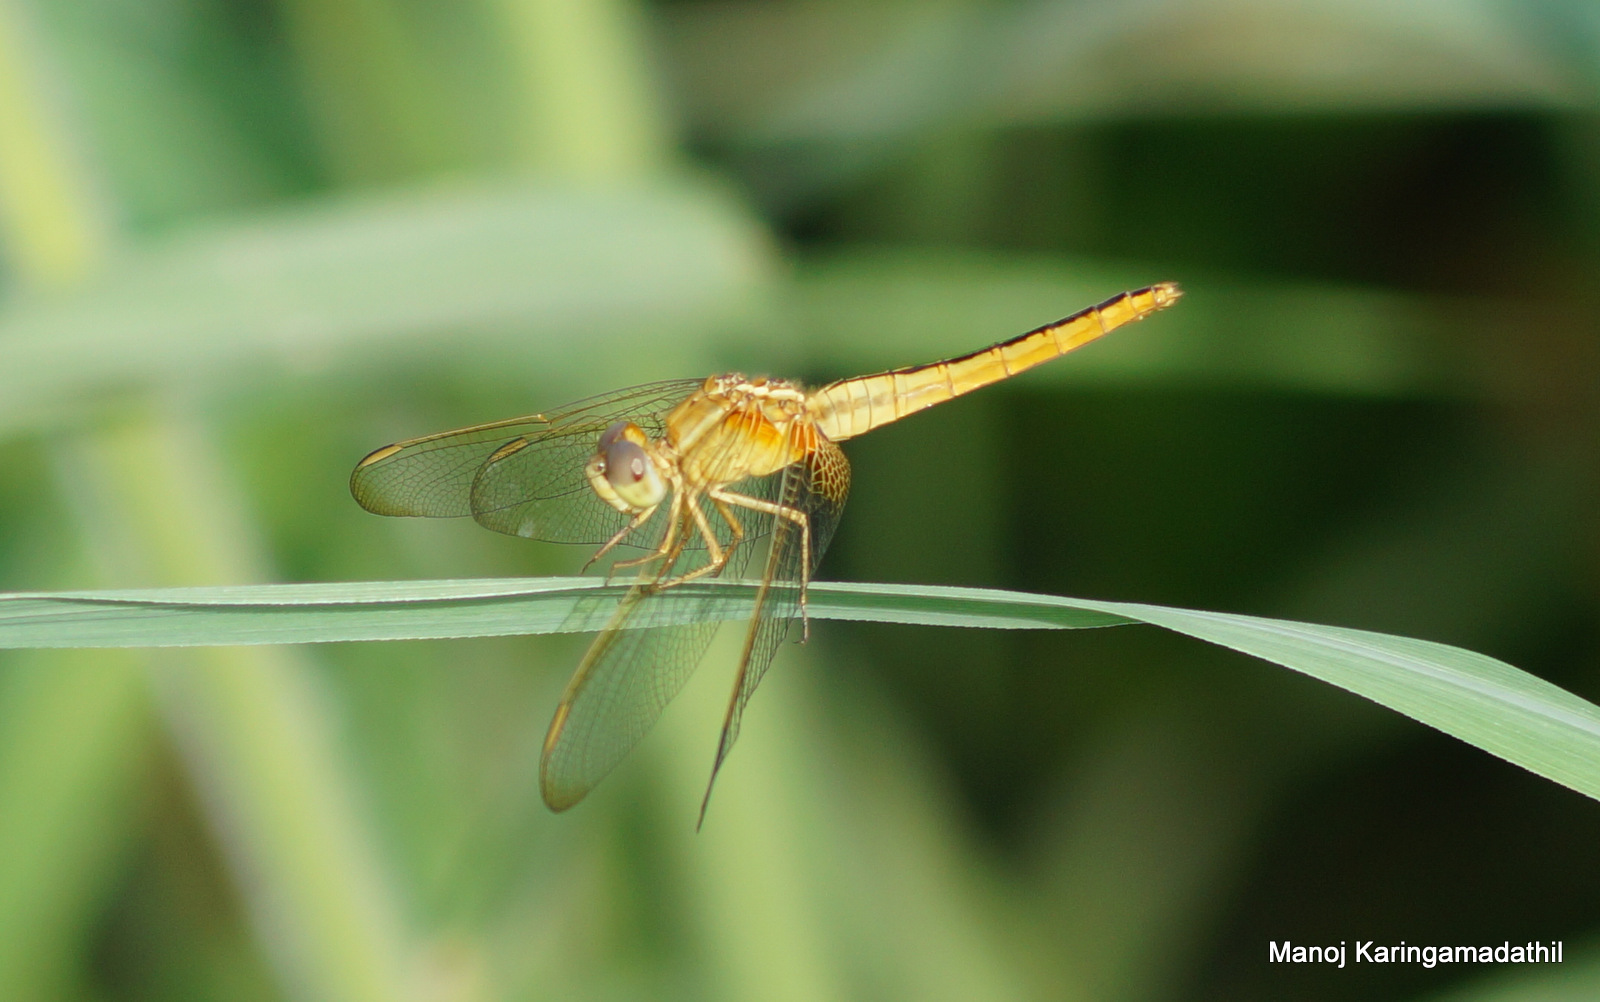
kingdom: Animalia
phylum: Arthropoda
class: Insecta
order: Odonata
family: Libellulidae
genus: Crocothemis
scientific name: Crocothemis servilia
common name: Scarlet skimmer
